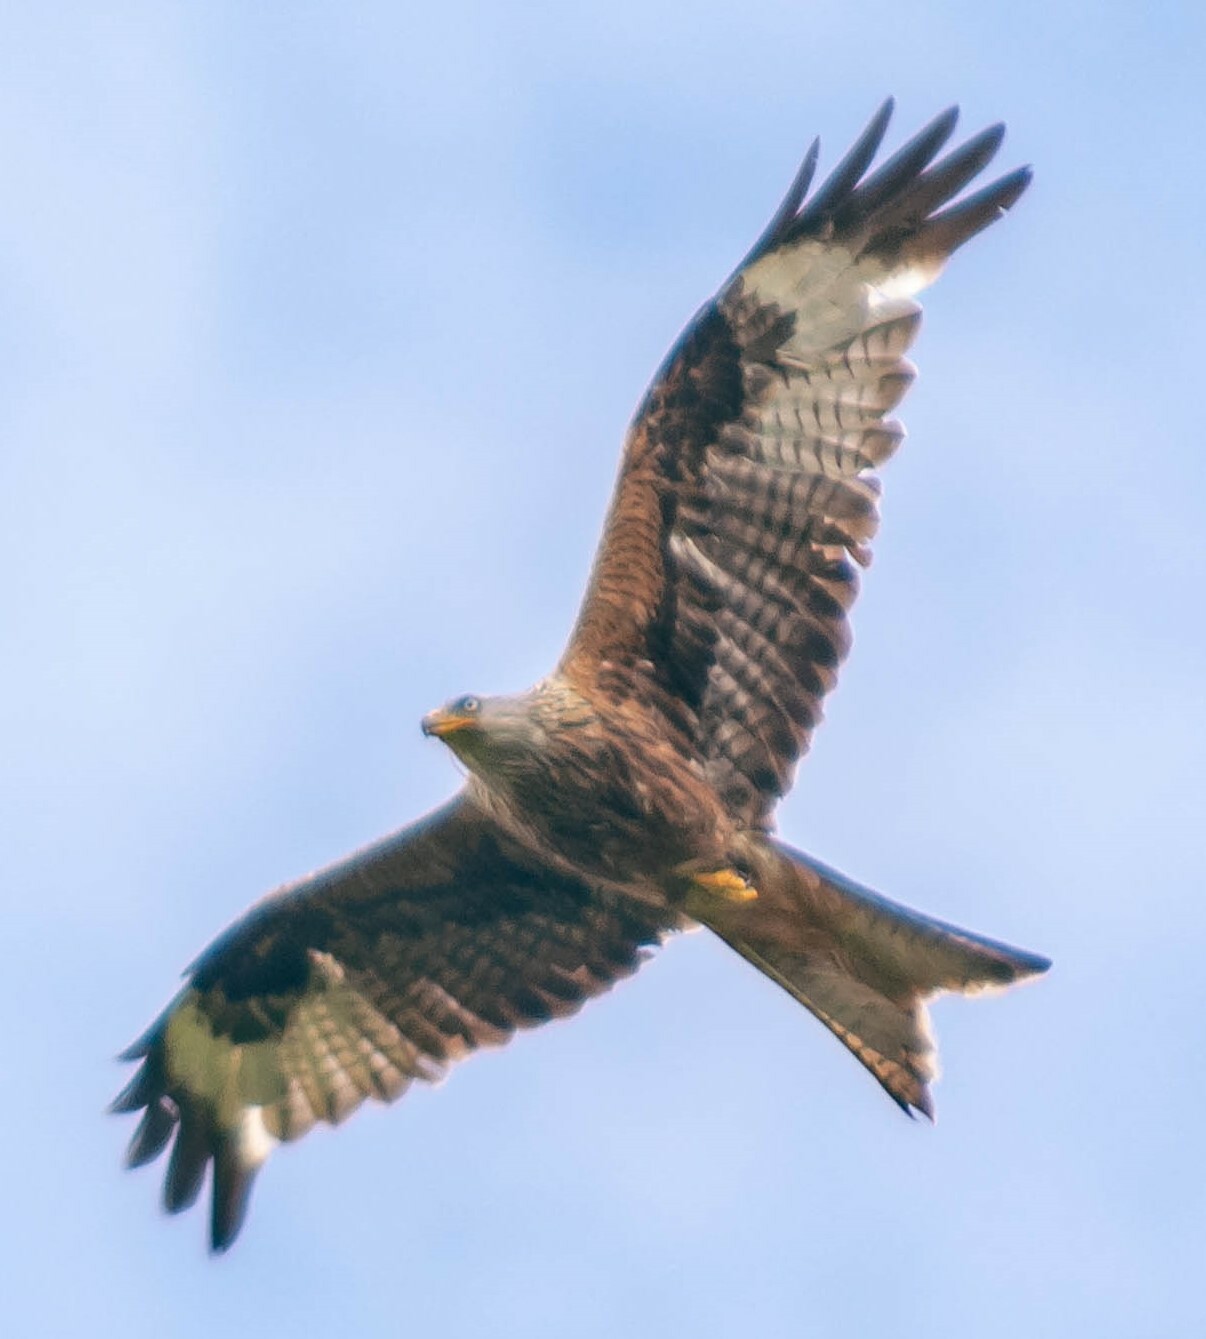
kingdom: Animalia
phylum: Chordata
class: Aves
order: Accipitriformes
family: Accipitridae
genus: Milvus
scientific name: Milvus milvus
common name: Red kite
